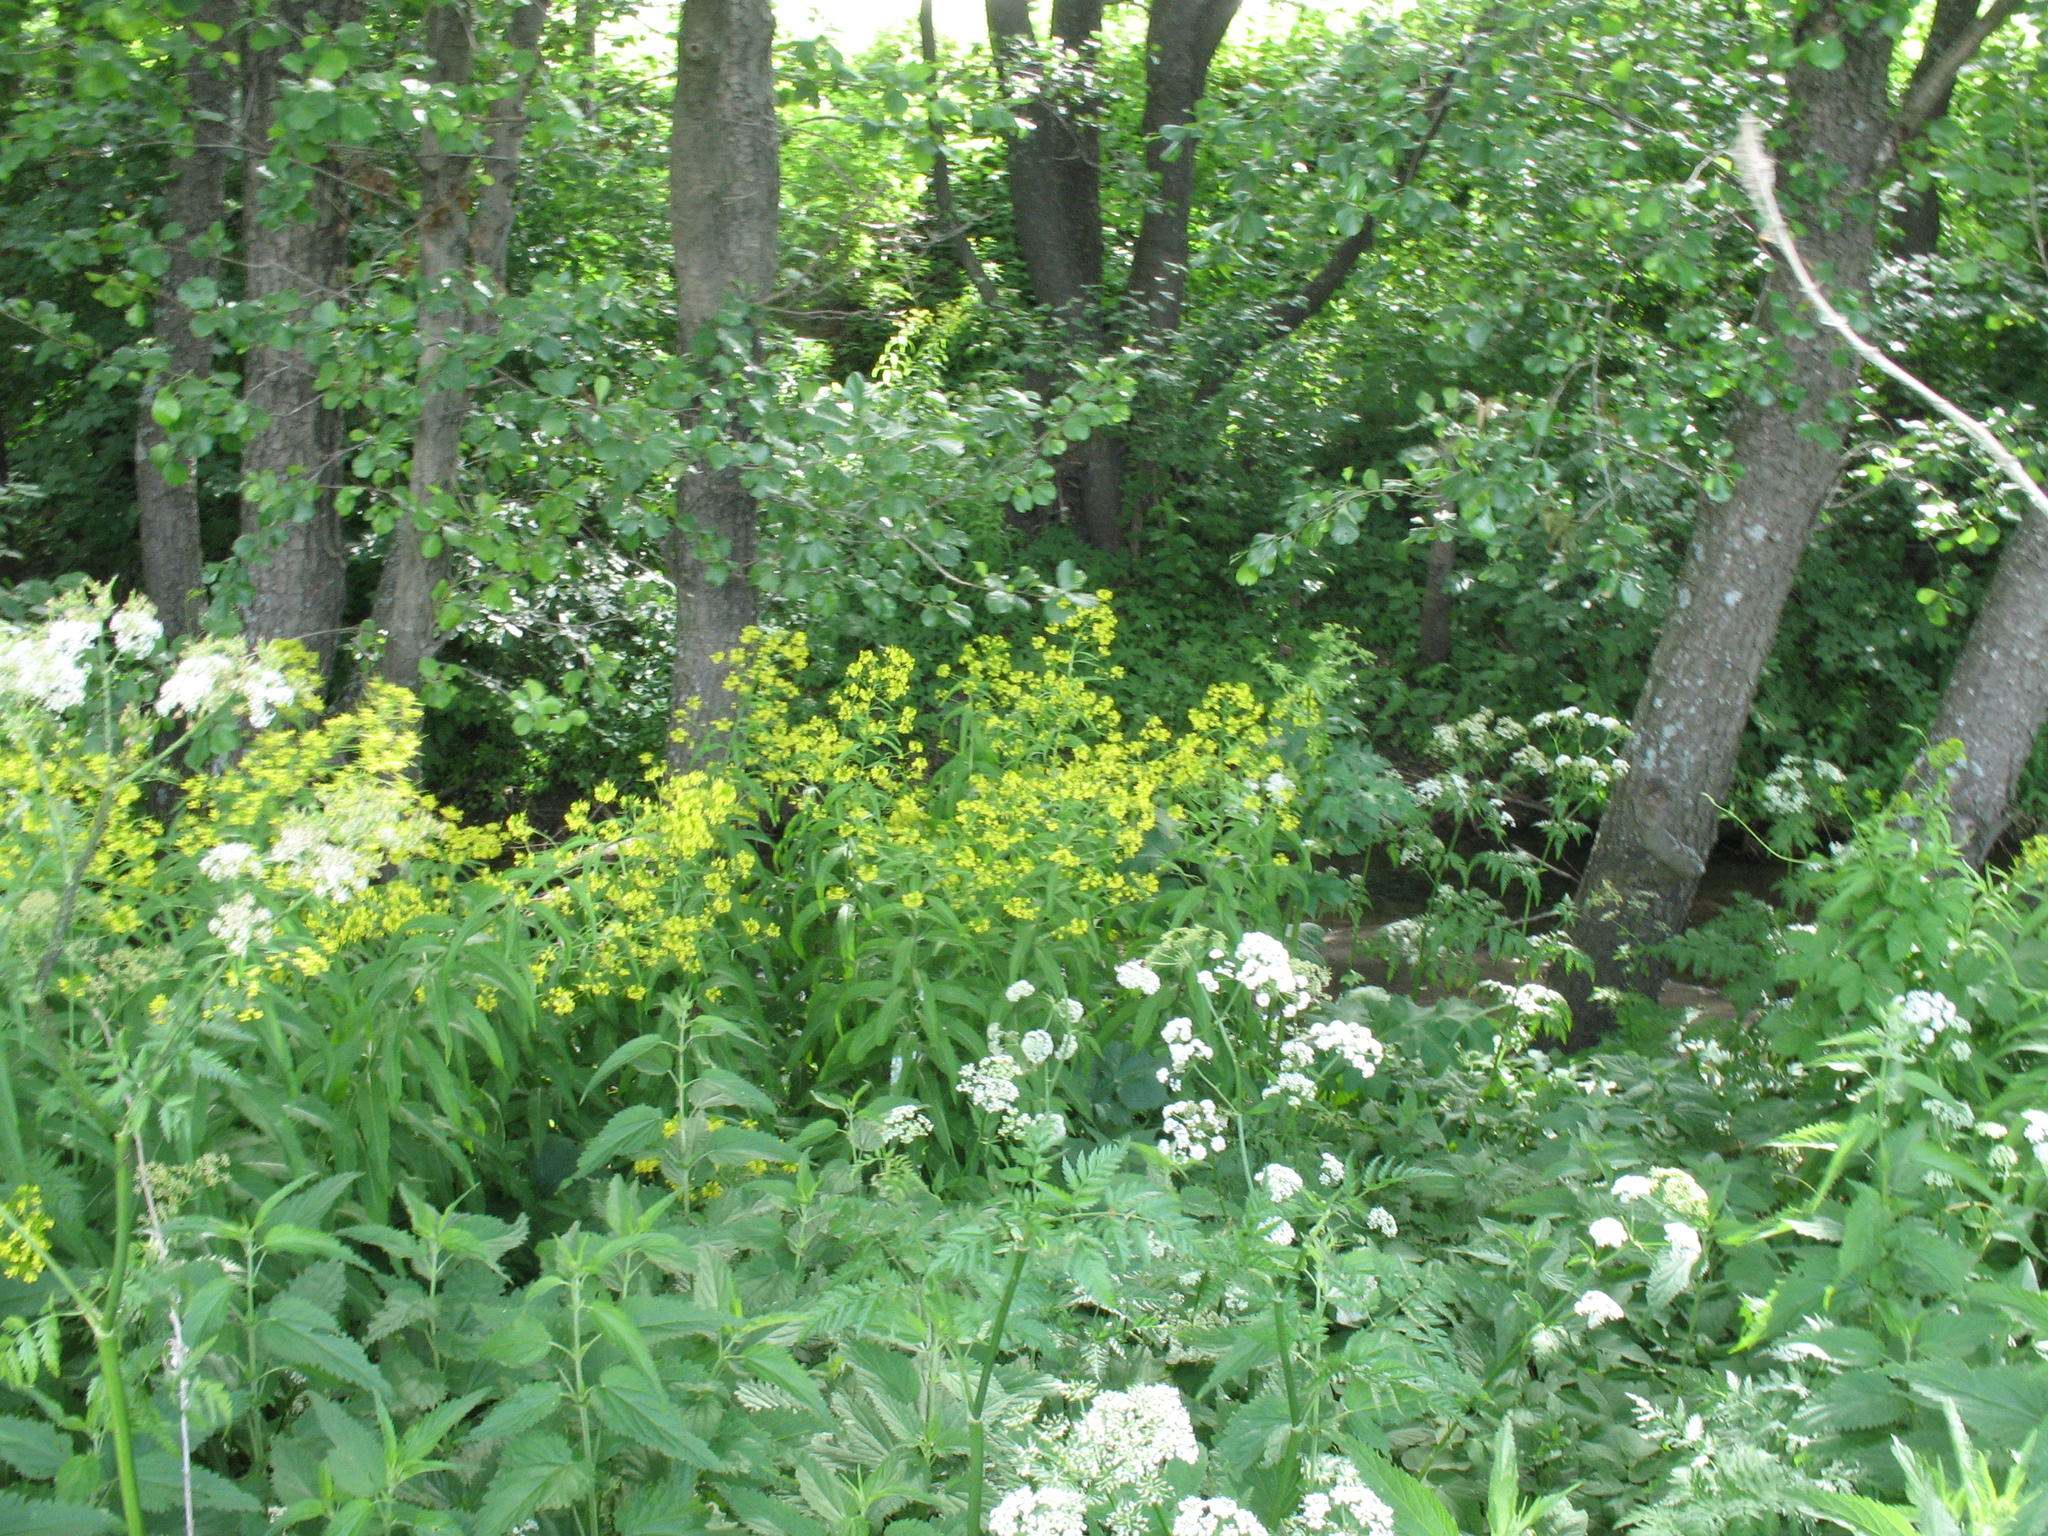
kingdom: Plantae
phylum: Tracheophyta
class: Magnoliopsida
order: Brassicales
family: Brassicaceae
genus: Sisymbrium
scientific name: Sisymbrium strictissimum
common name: Perennial rocket
